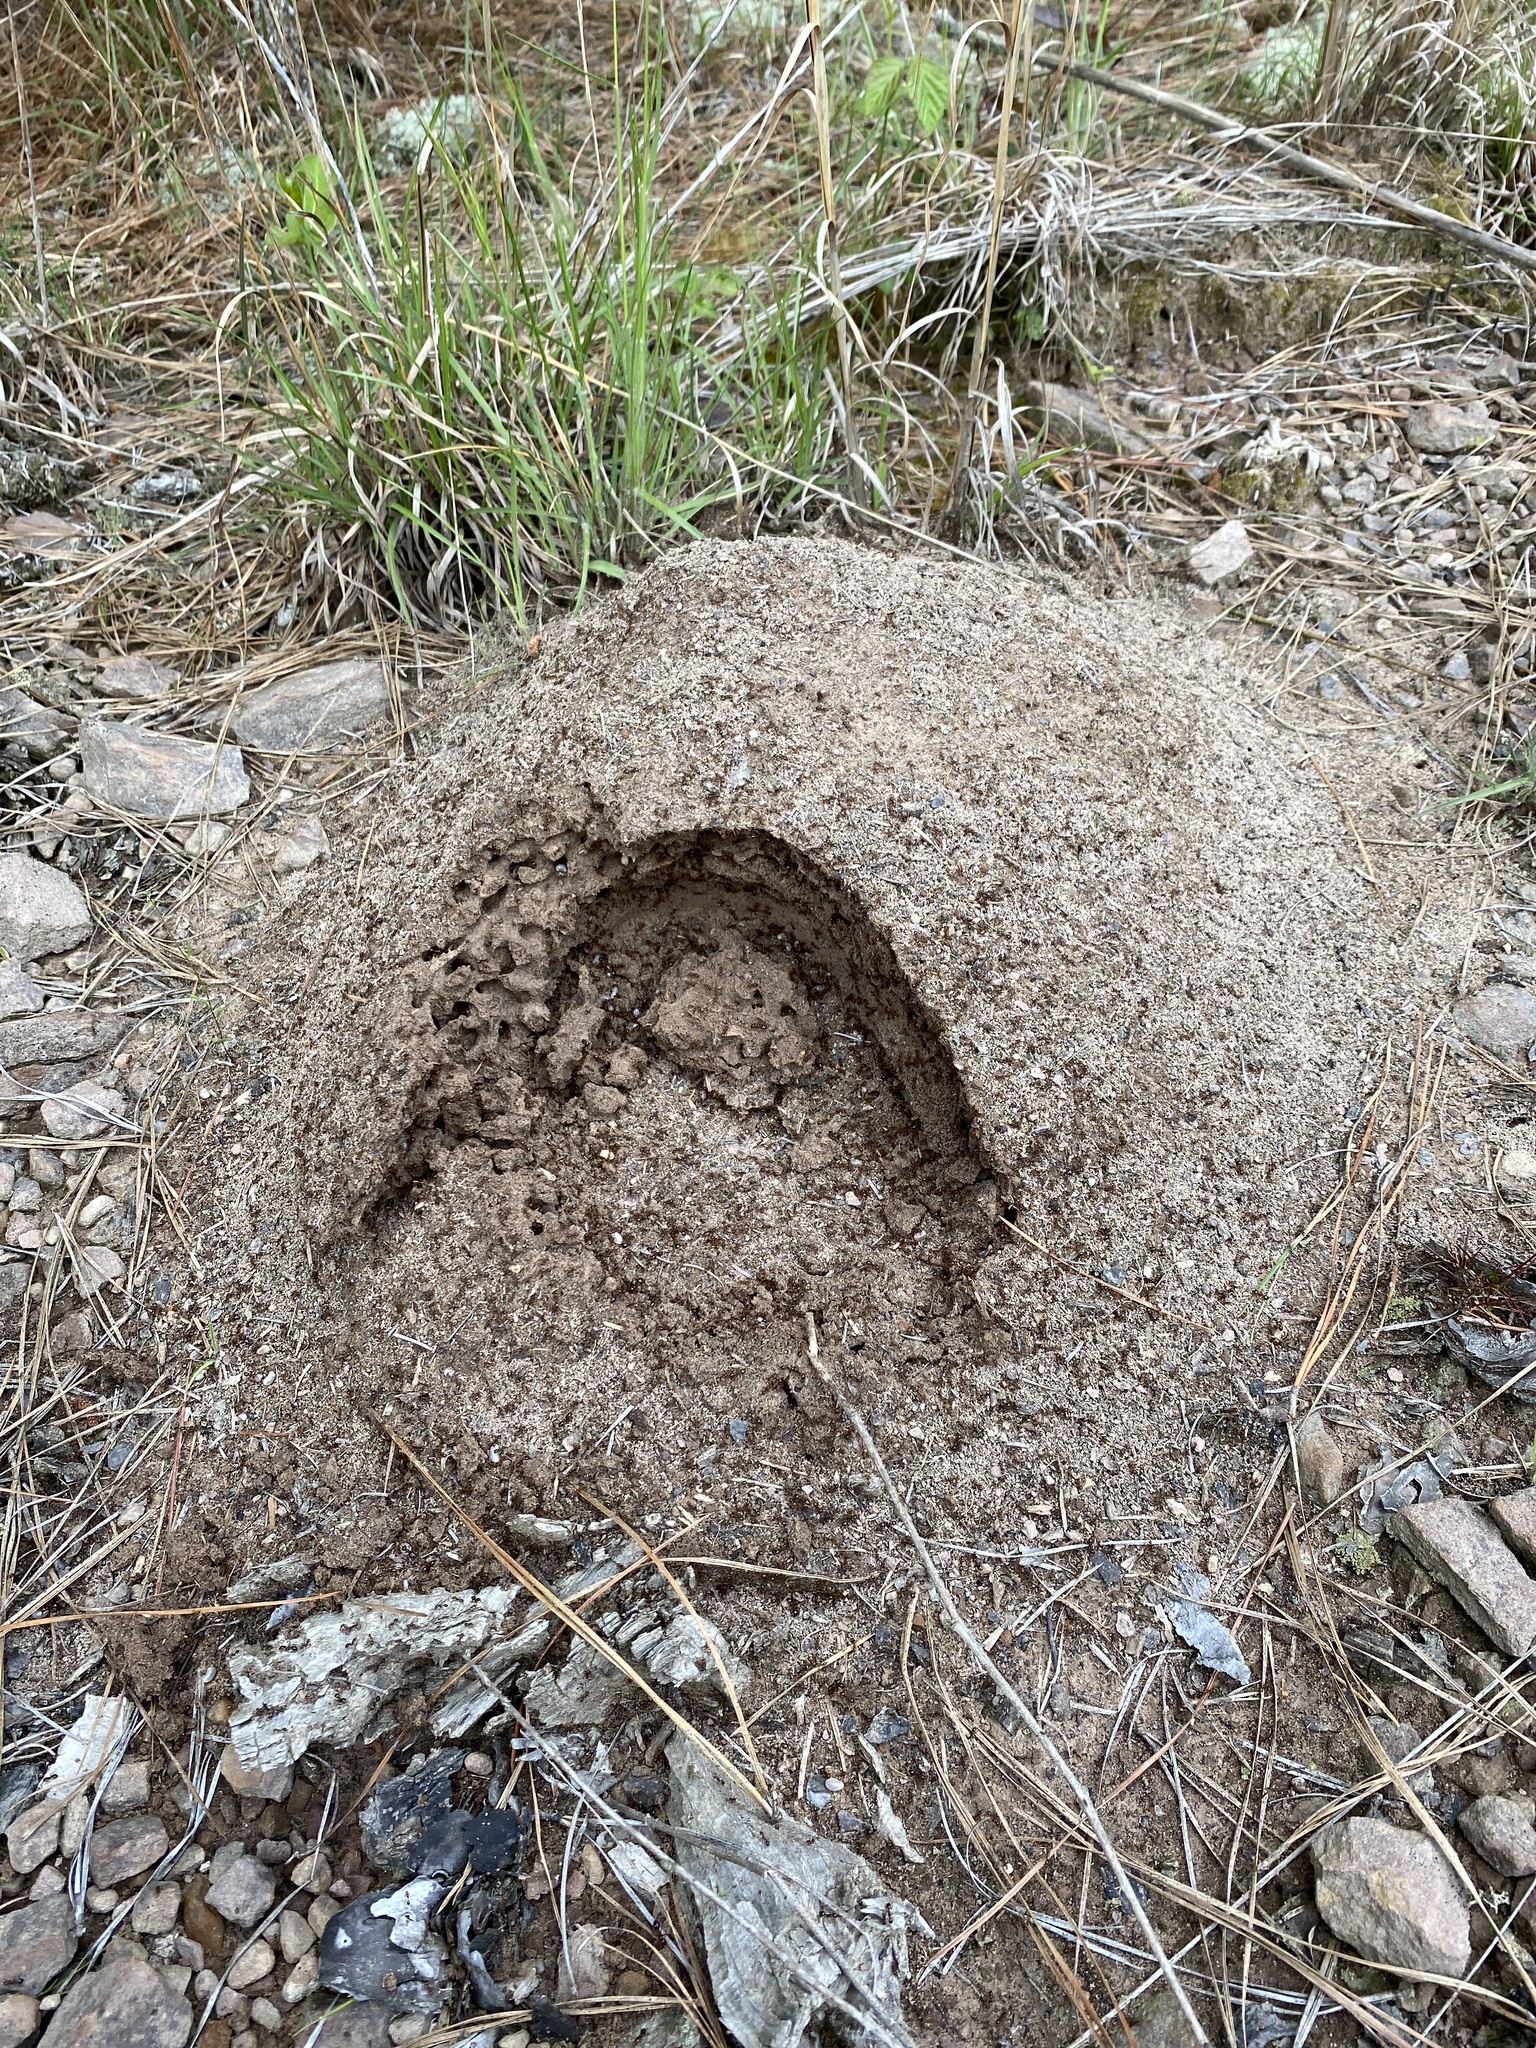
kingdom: Animalia
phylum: Arthropoda
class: Insecta
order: Hymenoptera
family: Formicidae
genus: Solenopsis
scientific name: Solenopsis invicta
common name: Red imported fire ant
